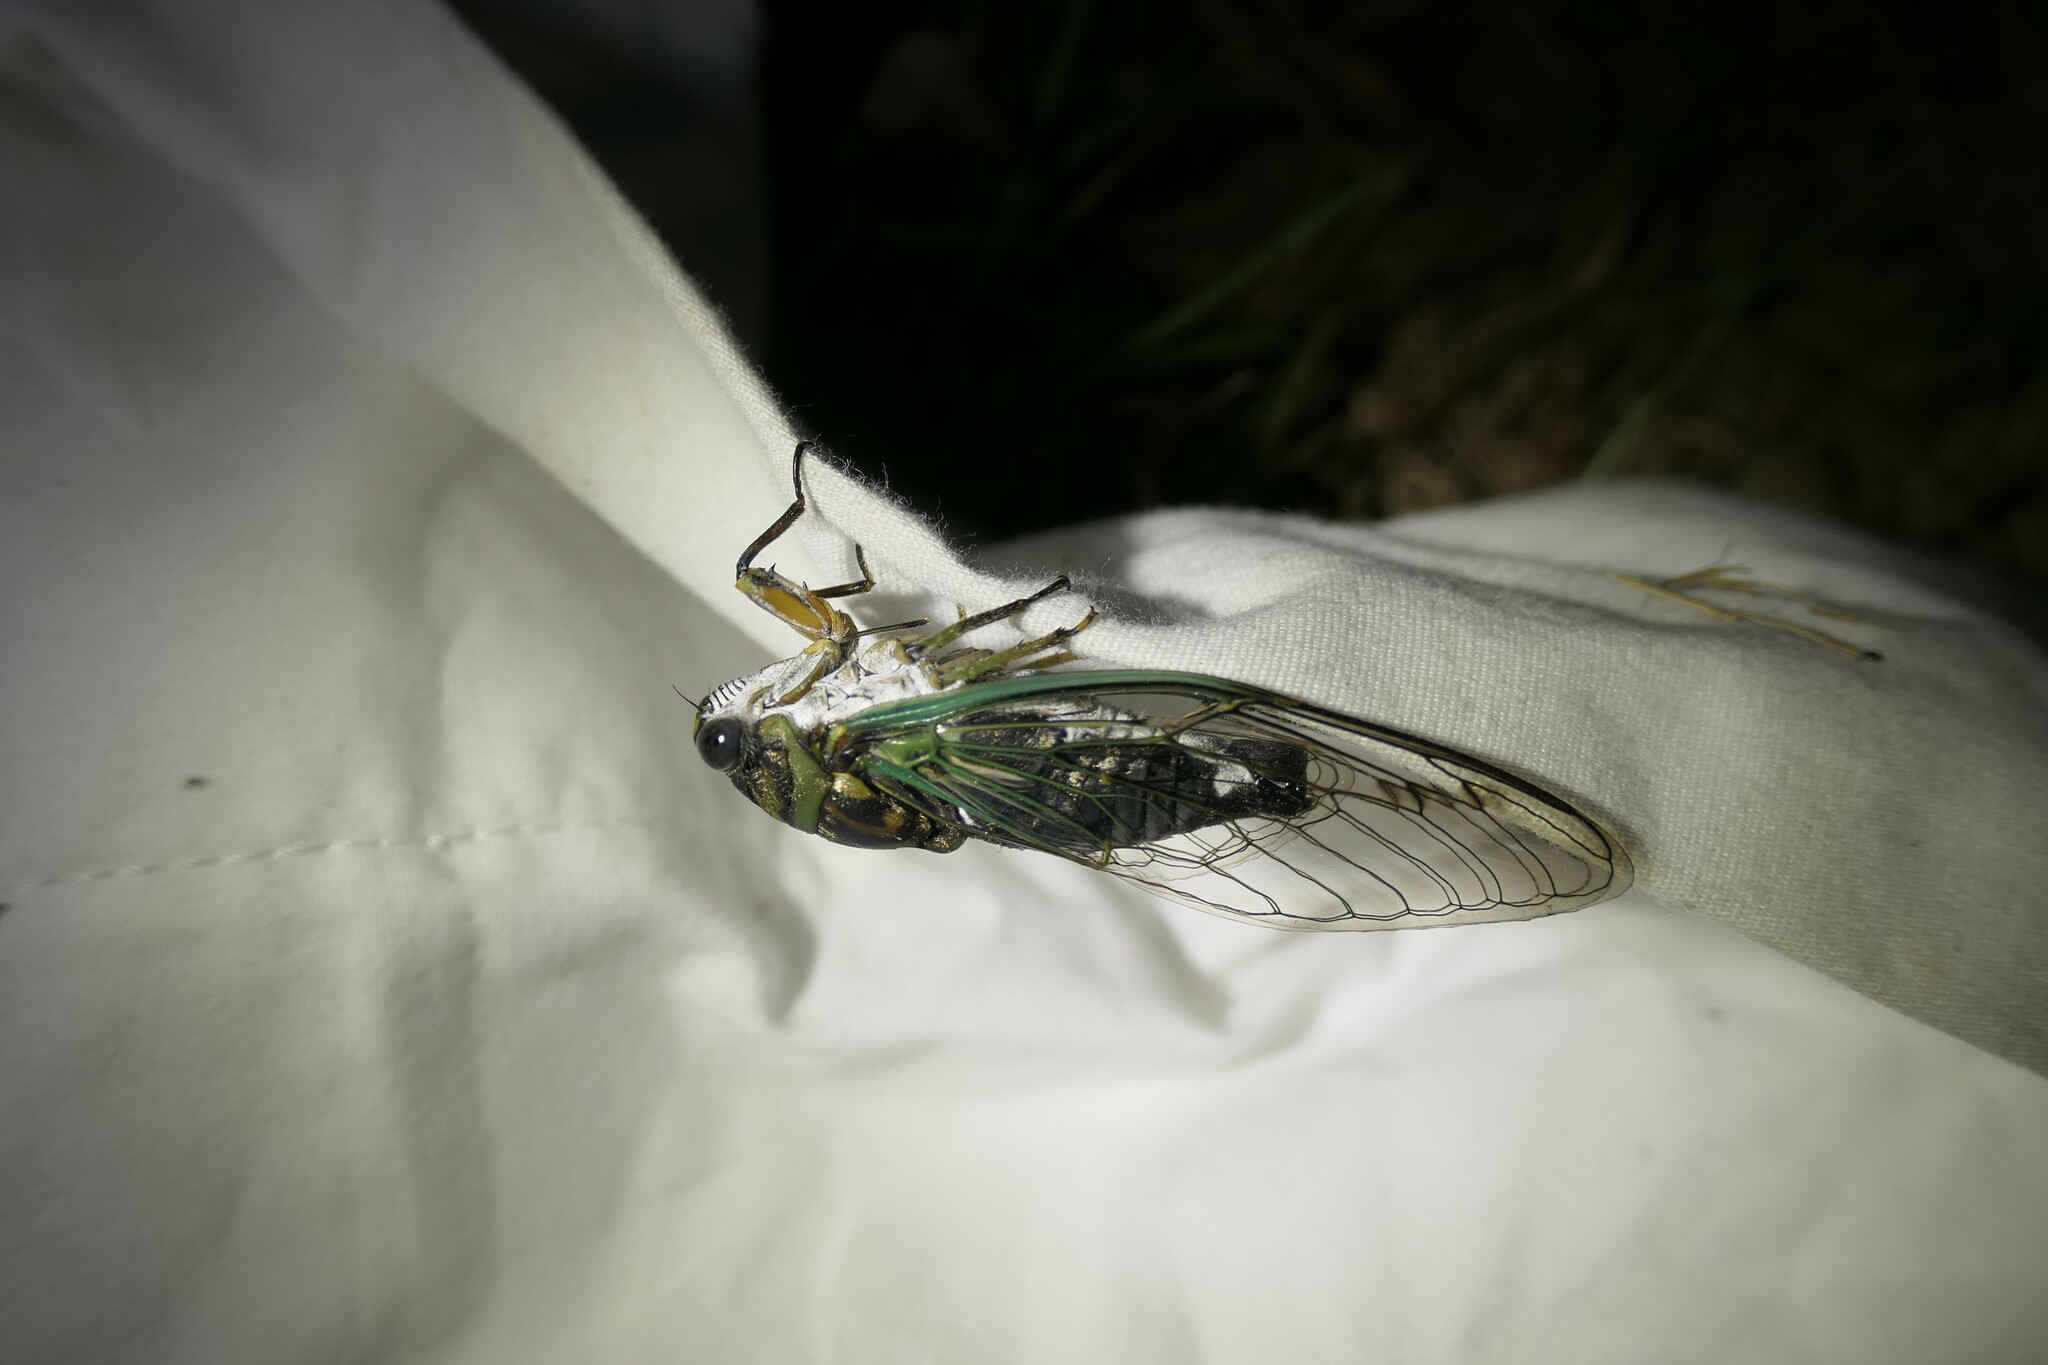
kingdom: Animalia
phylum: Arthropoda
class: Insecta
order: Hemiptera
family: Cicadidae
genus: Neotibicen
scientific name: Neotibicen linnei
